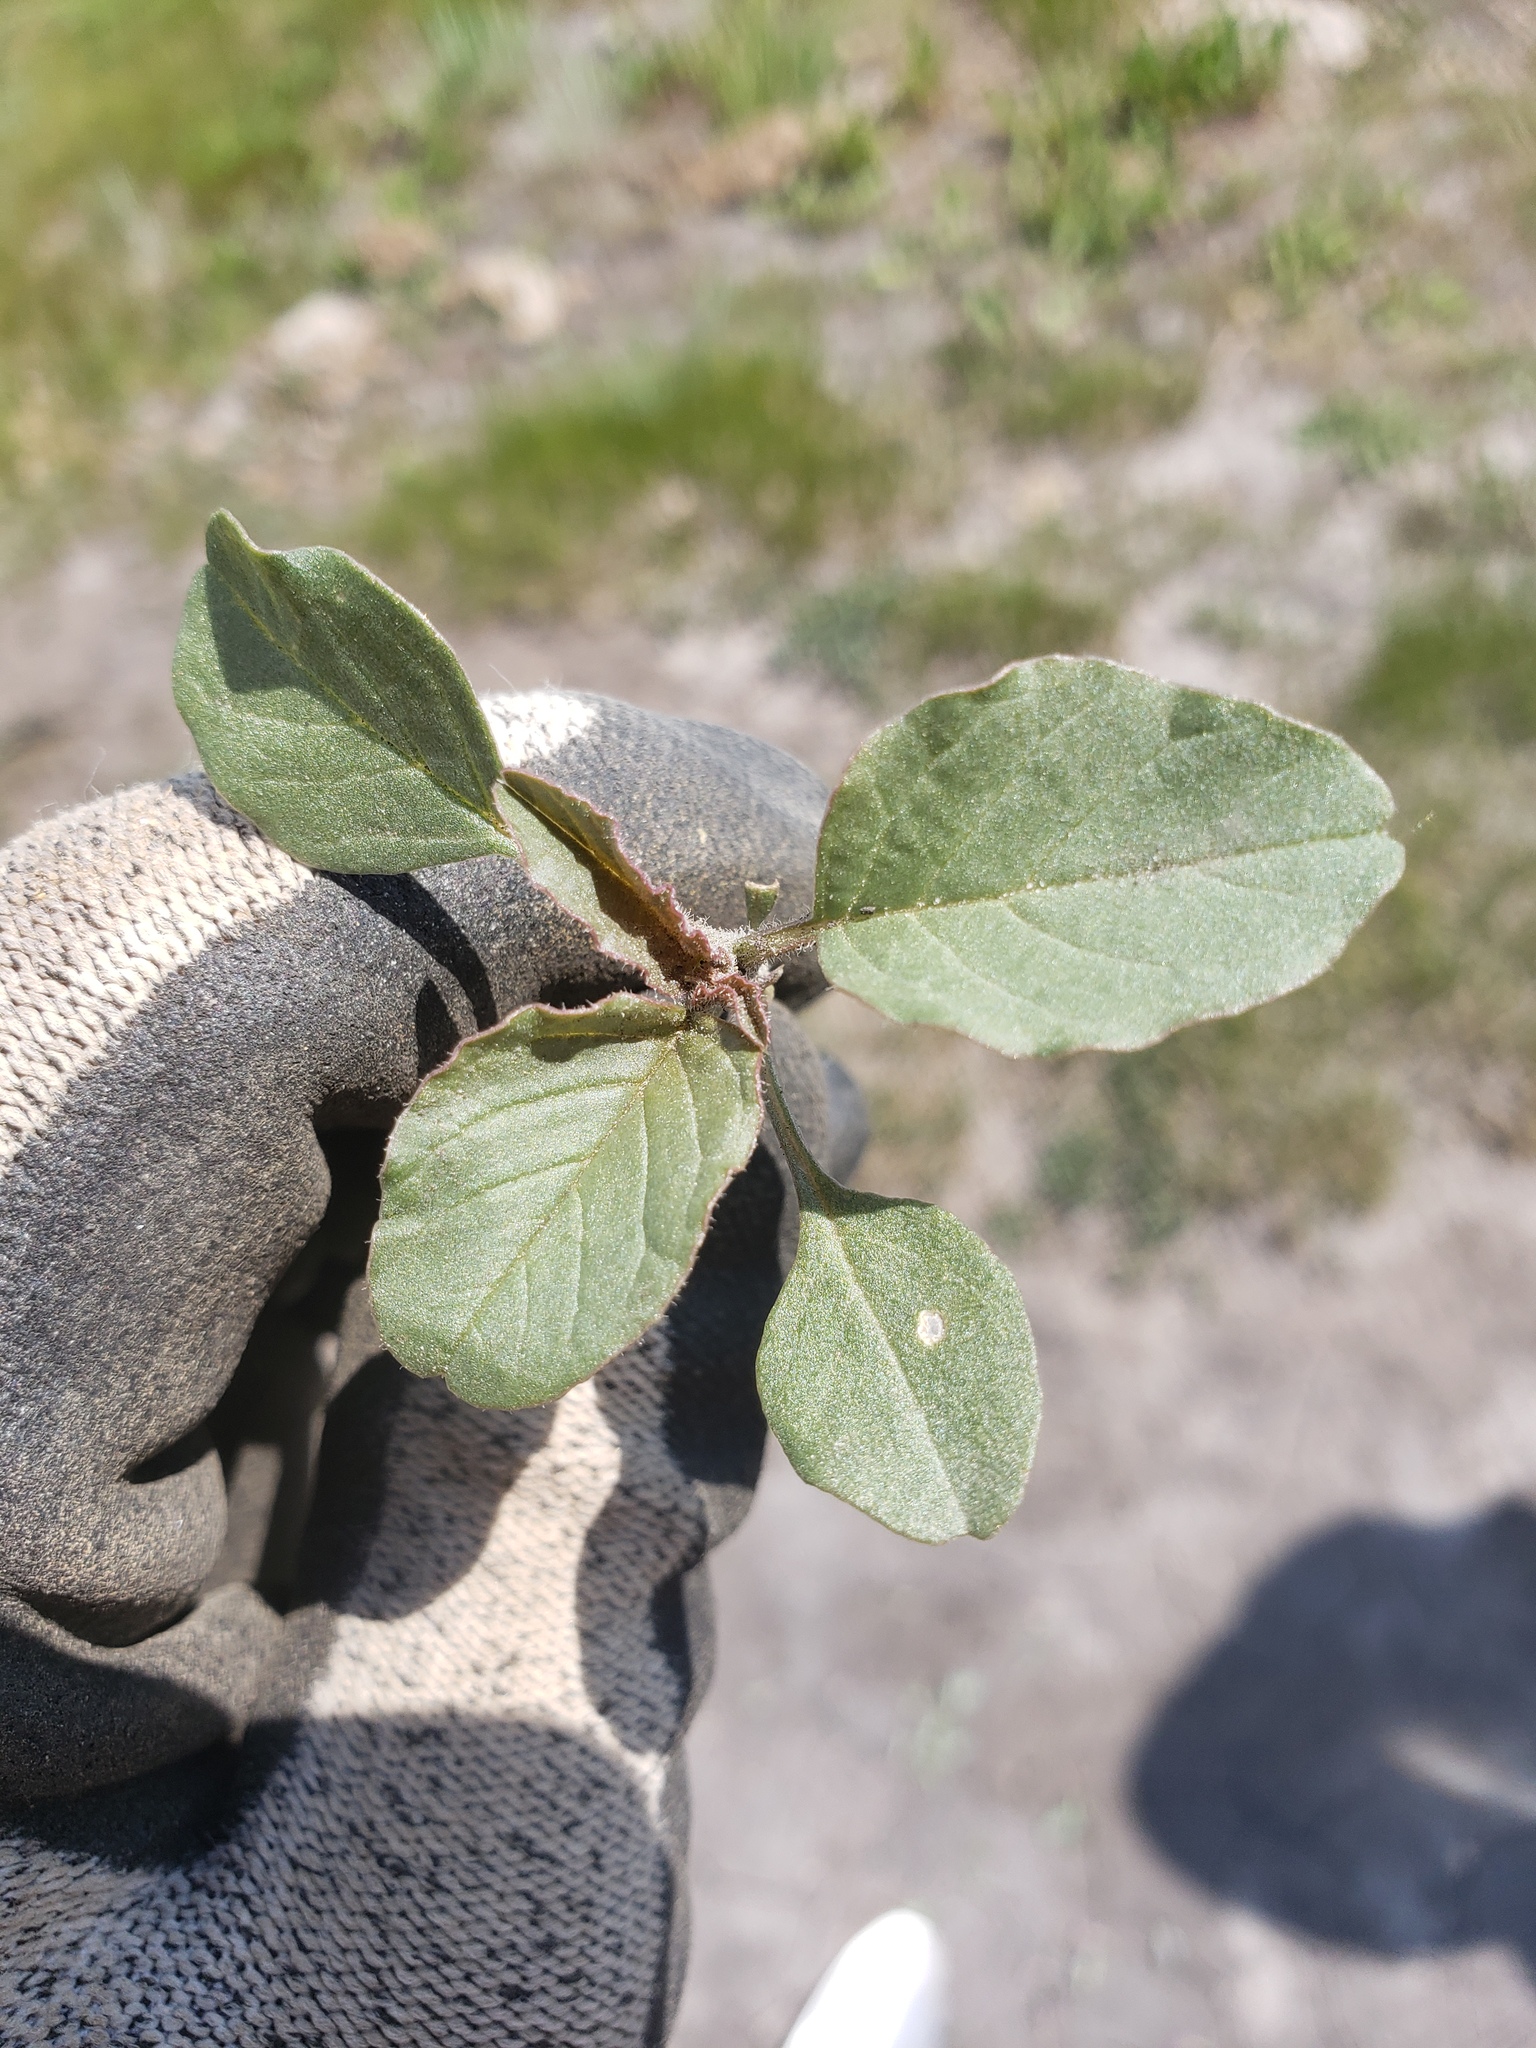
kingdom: Plantae
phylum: Tracheophyta
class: Magnoliopsida
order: Caryophyllales
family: Amaranthaceae
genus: Amaranthus
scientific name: Amaranthus retroflexus
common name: Redroot amaranth
